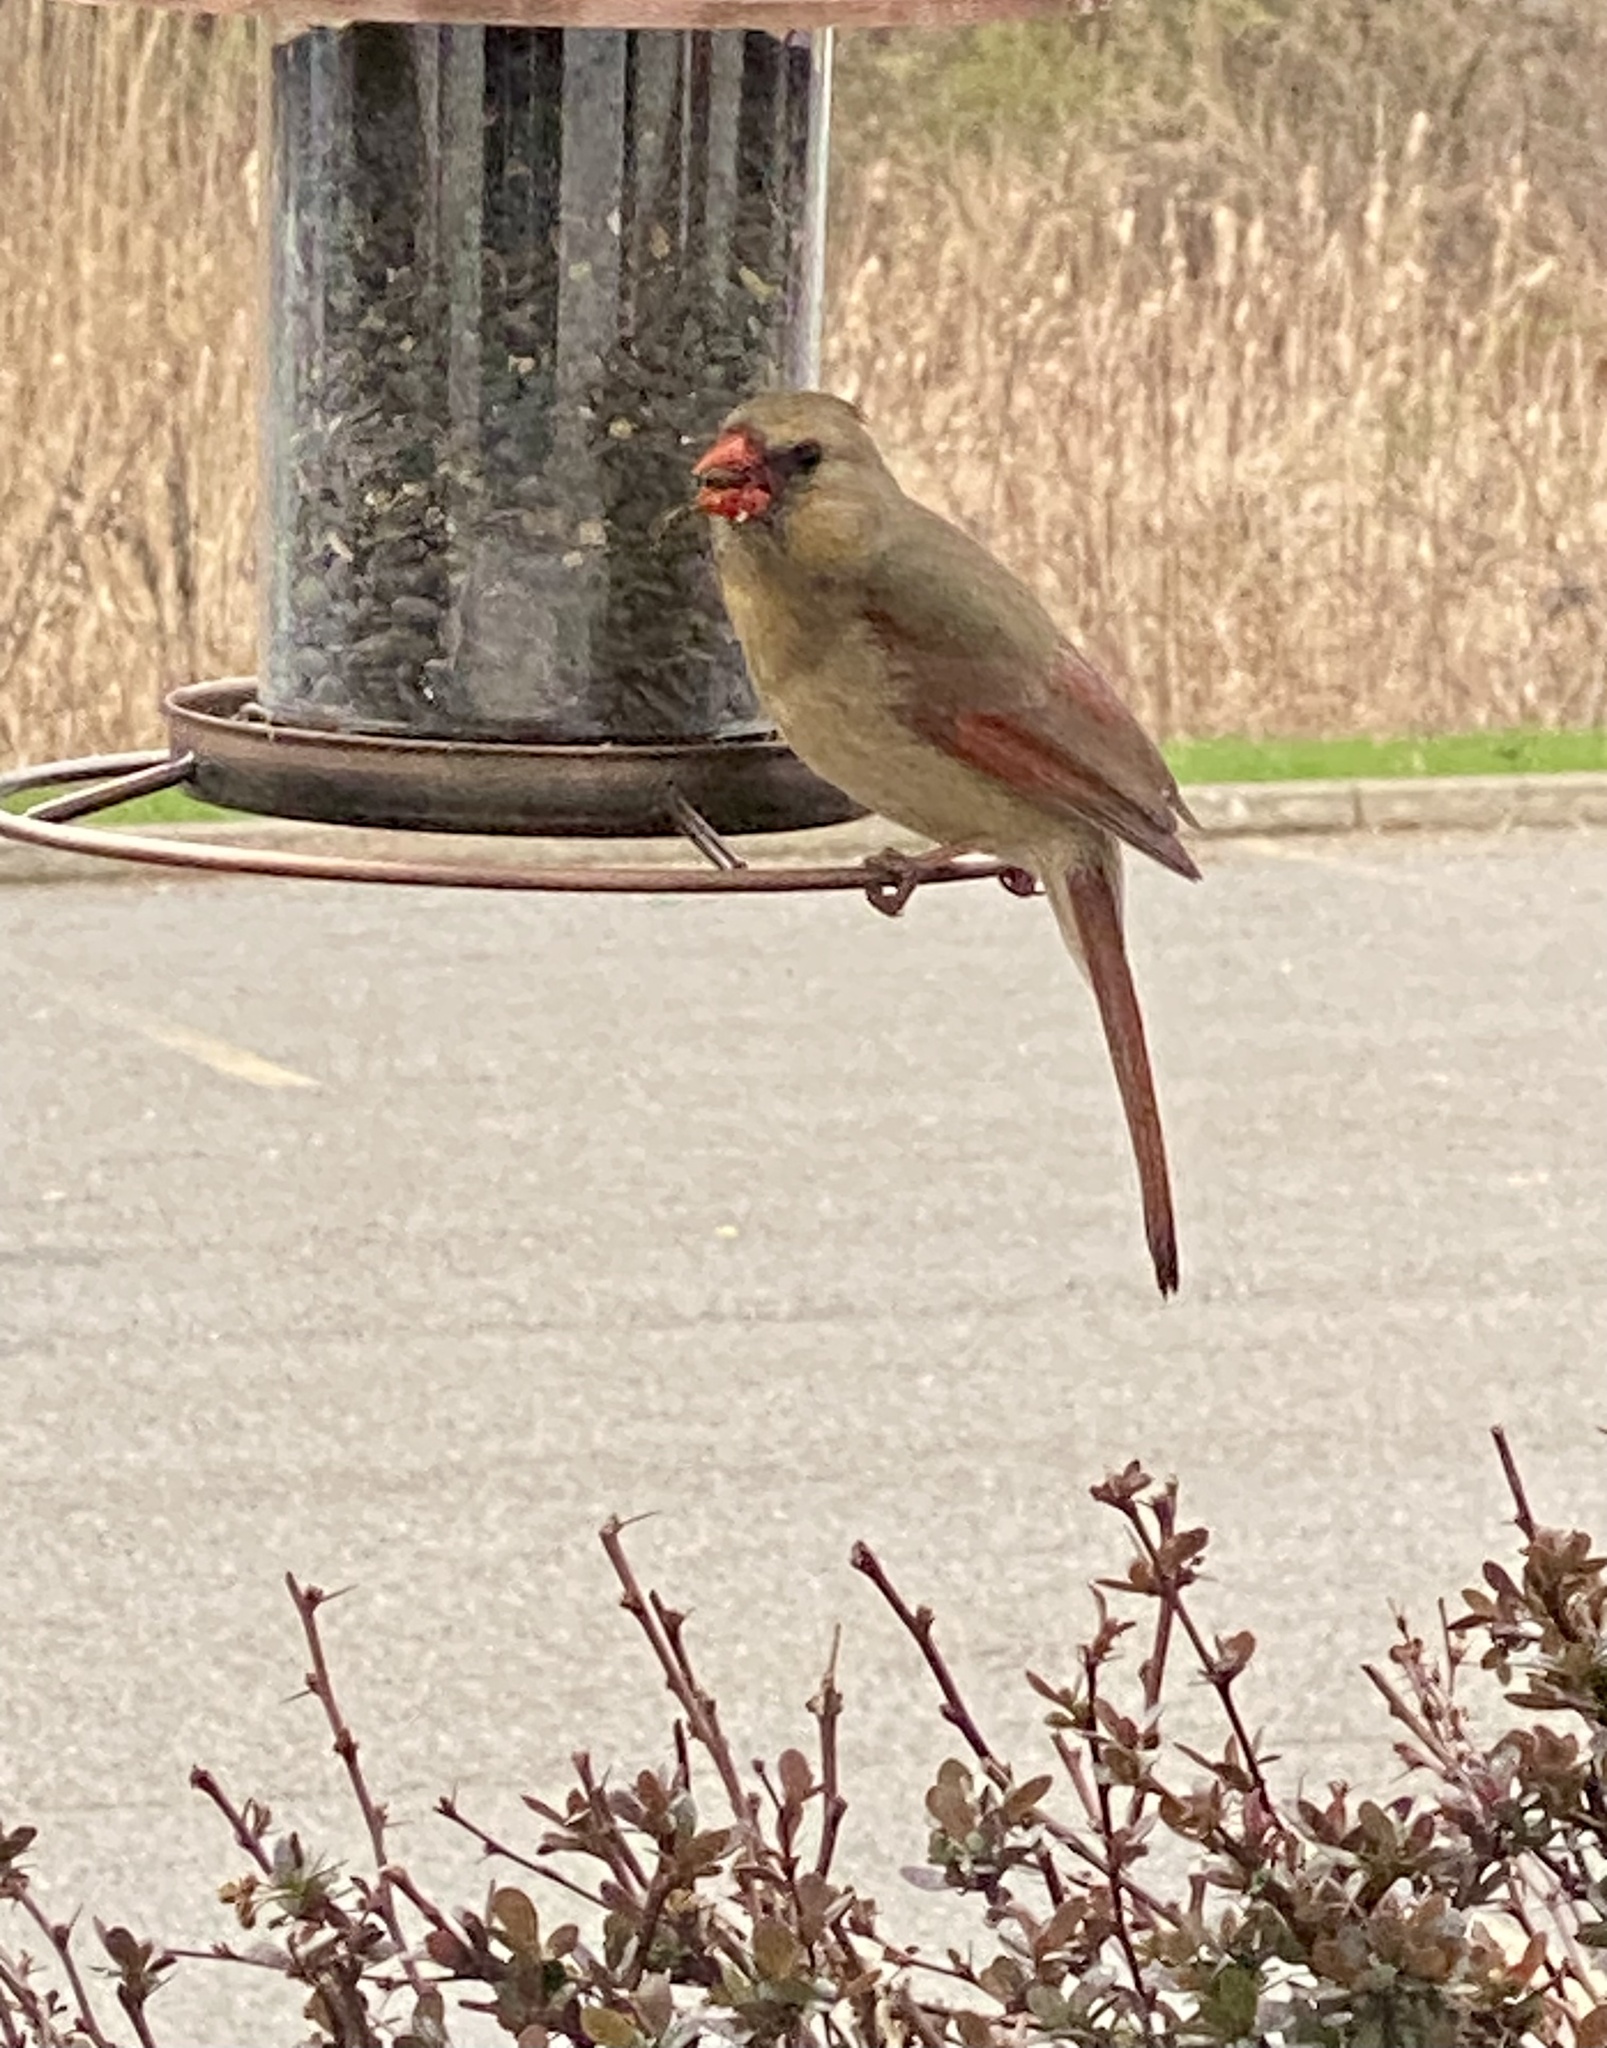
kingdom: Animalia
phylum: Chordata
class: Aves
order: Passeriformes
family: Cardinalidae
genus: Cardinalis
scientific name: Cardinalis cardinalis
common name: Northern cardinal
